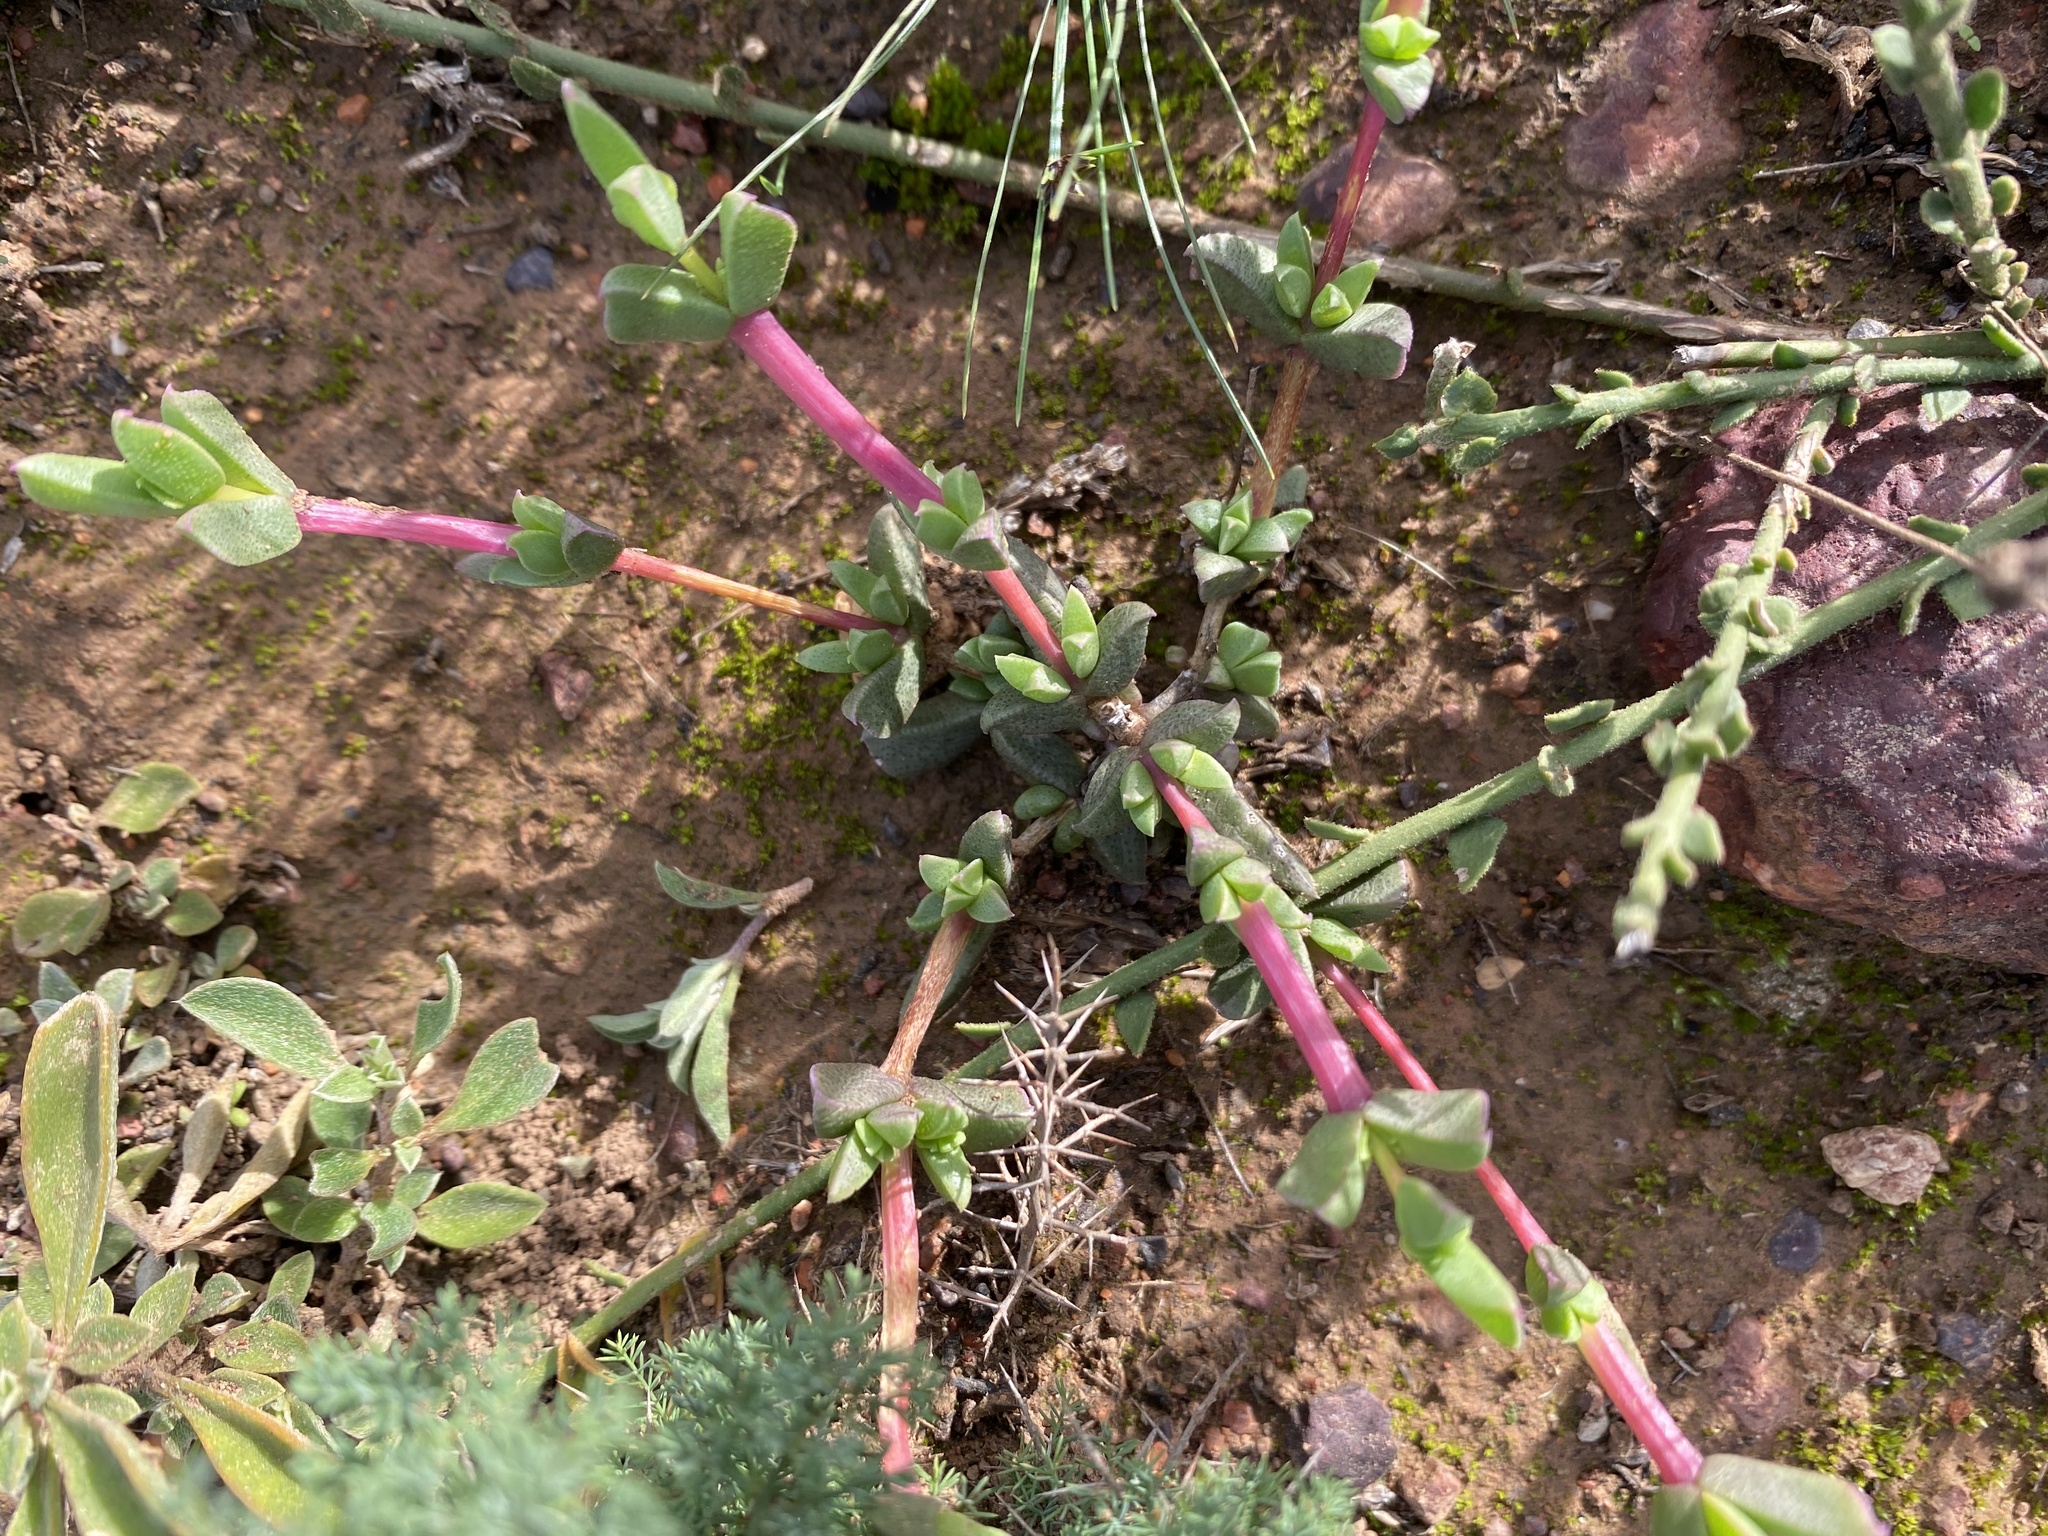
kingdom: Plantae
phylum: Tracheophyta
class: Magnoliopsida
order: Caryophyllales
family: Aizoaceae
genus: Ruschia
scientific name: Ruschia leptocalyx
